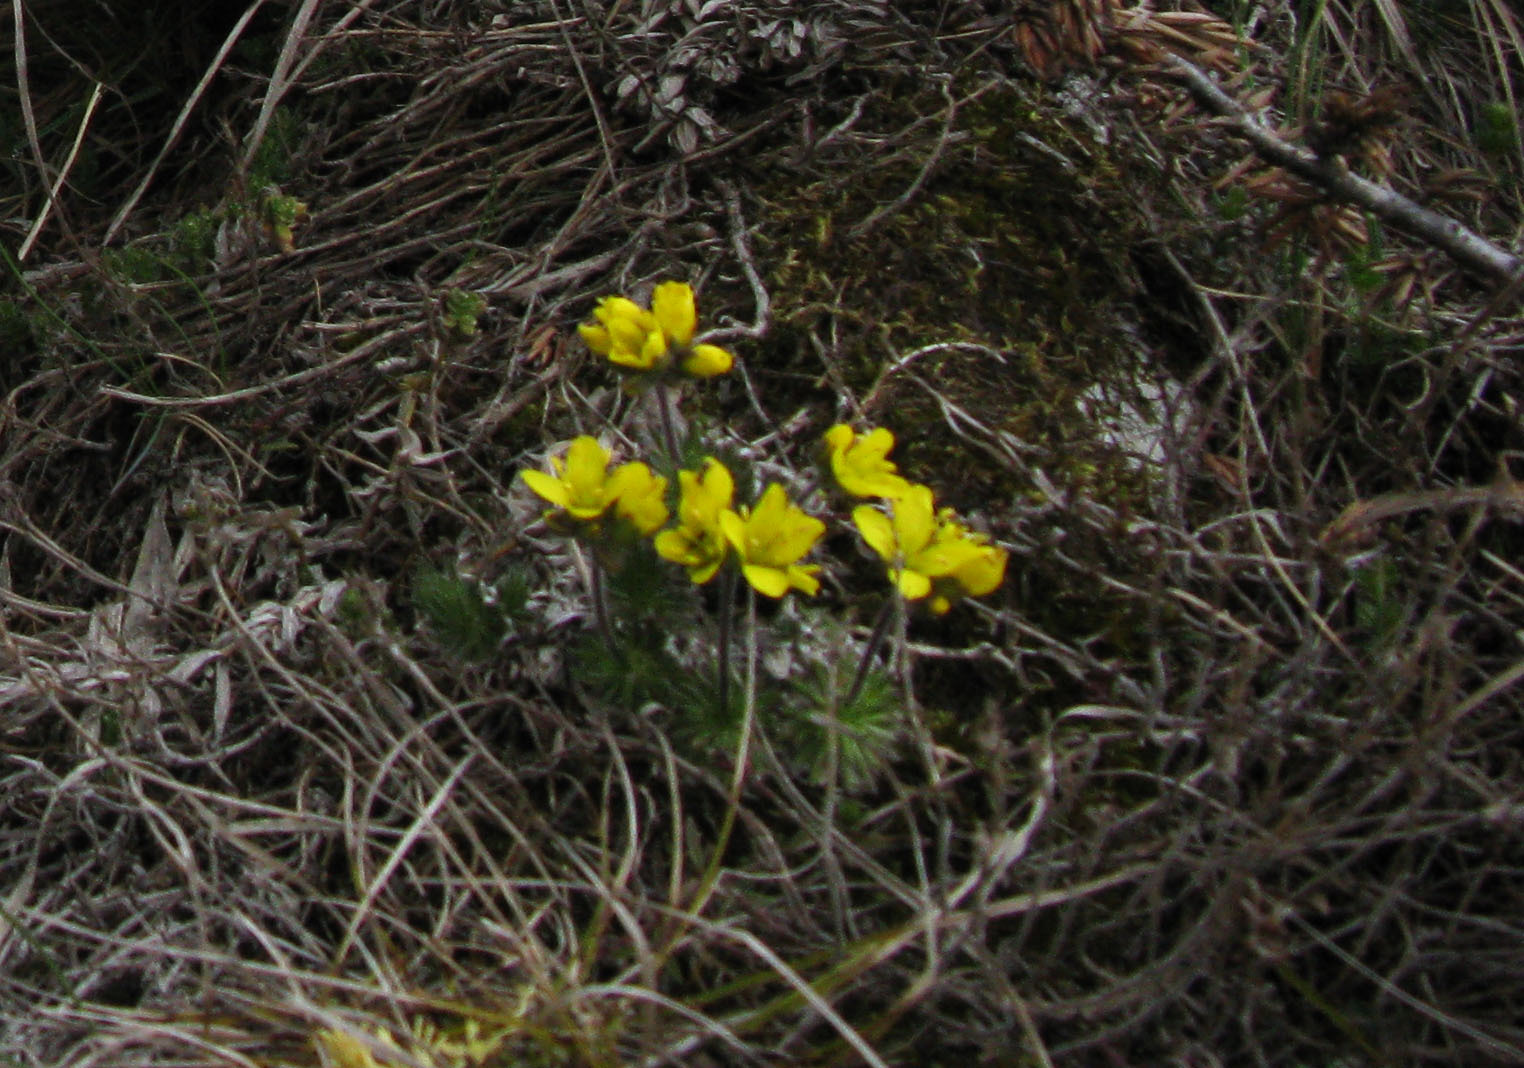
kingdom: Plantae
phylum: Tracheophyta
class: Magnoliopsida
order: Brassicales
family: Brassicaceae
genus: Draba
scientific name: Draba cuspidata
